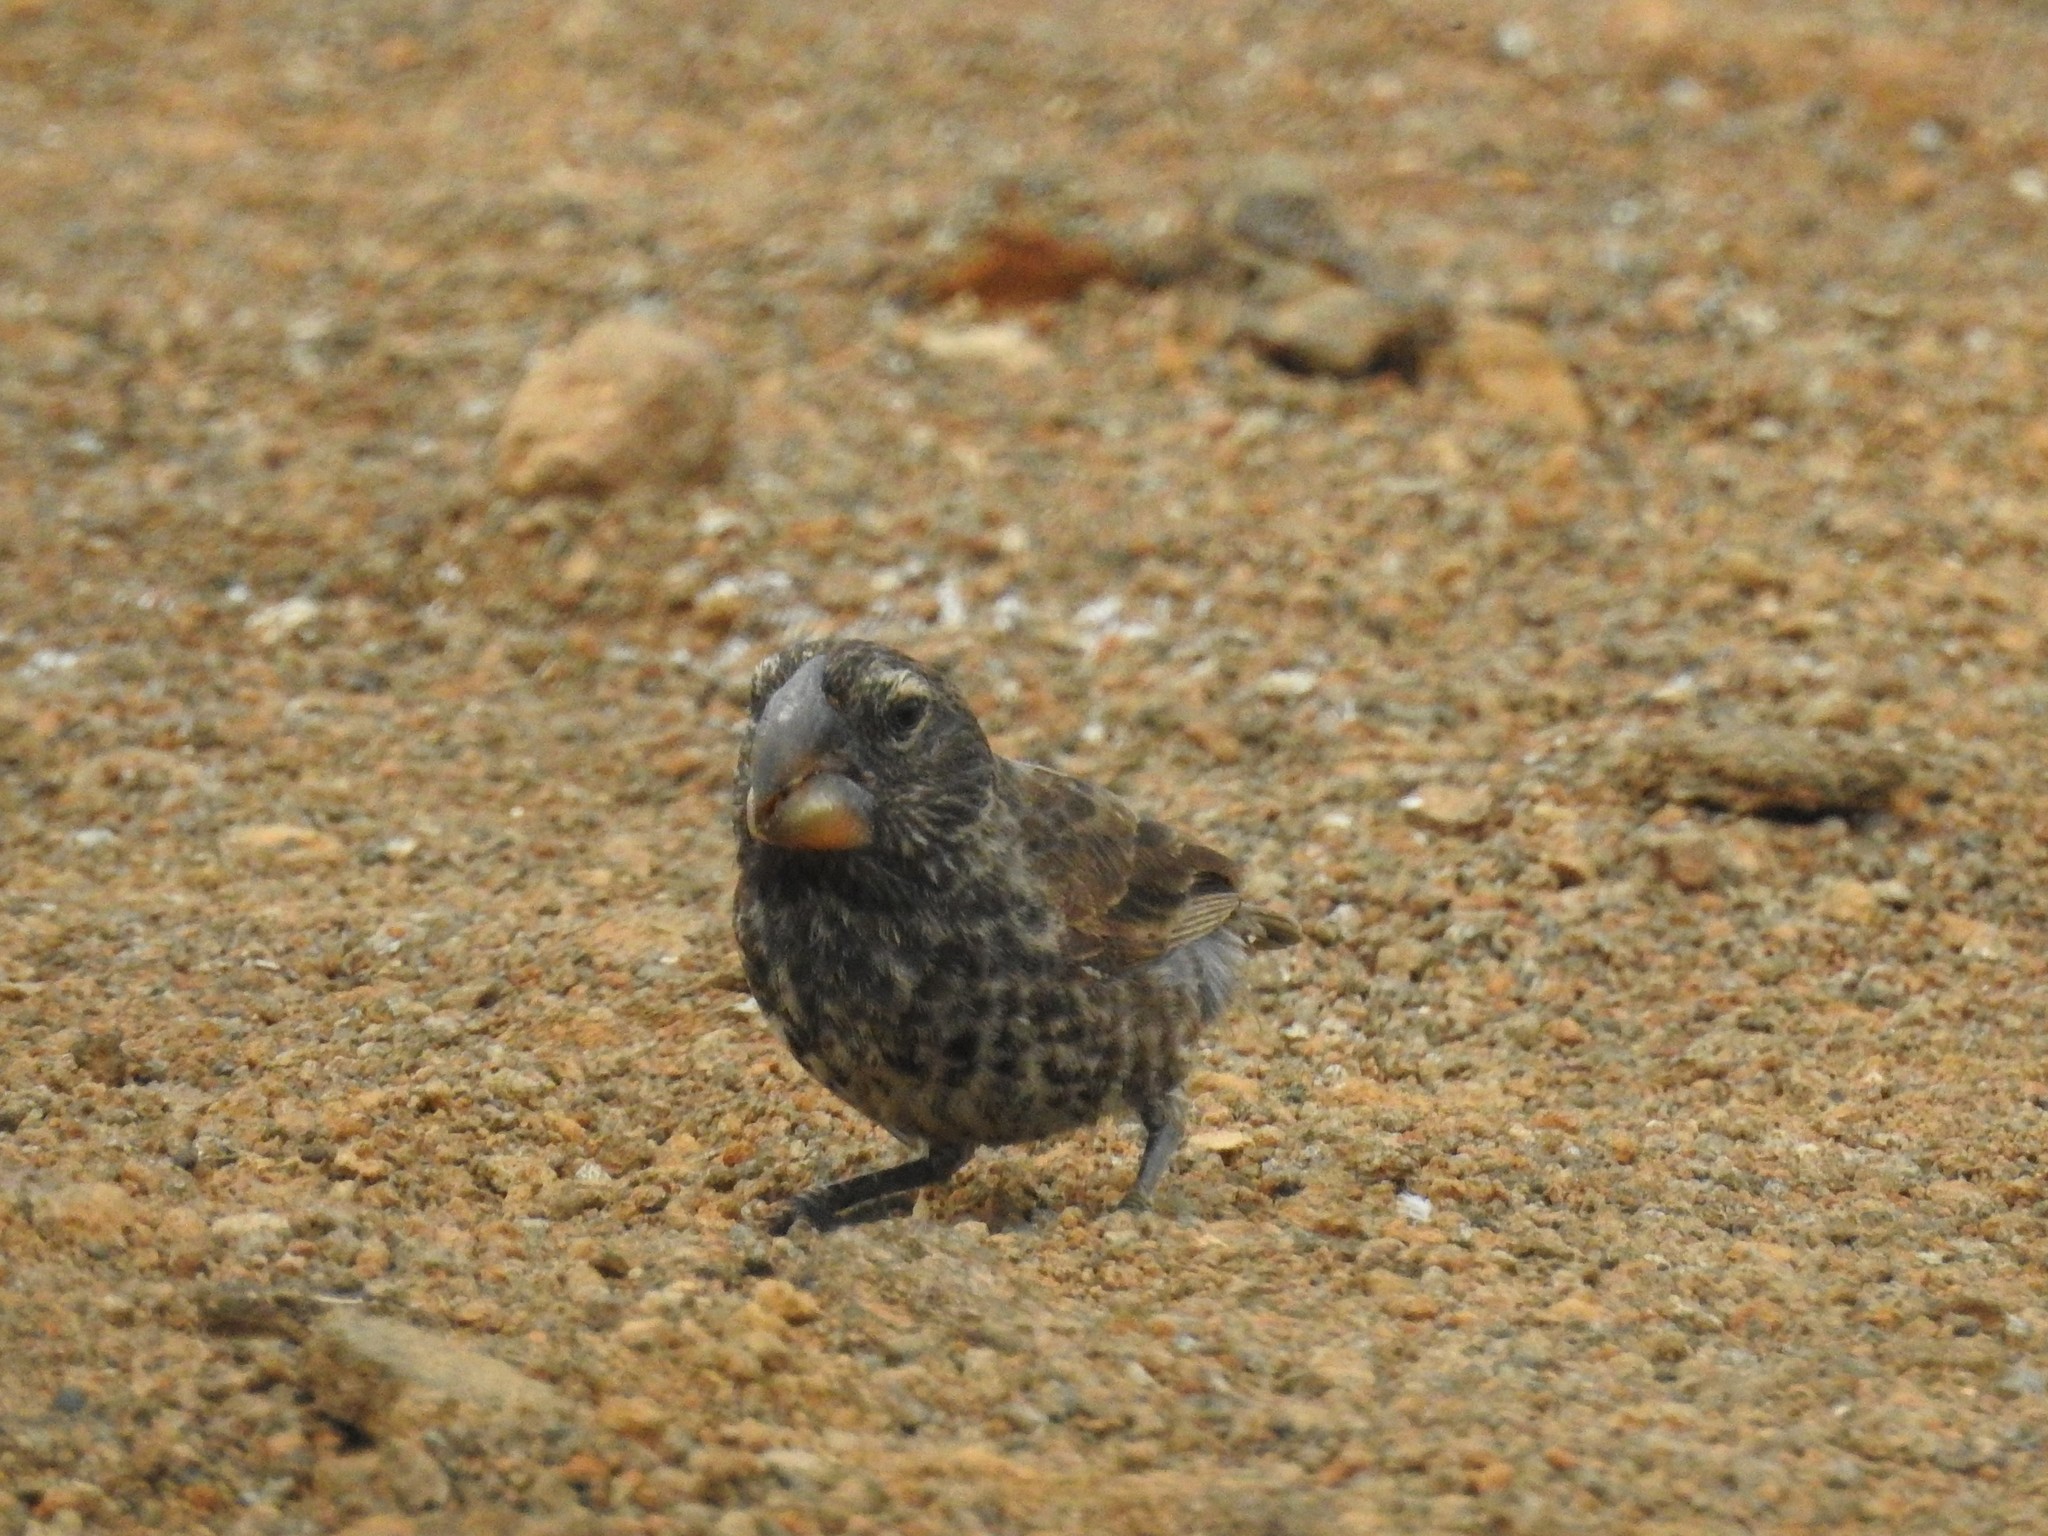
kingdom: Animalia
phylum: Chordata
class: Aves
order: Passeriformes
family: Thraupidae
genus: Geospiza
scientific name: Geospiza magnirostris
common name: Large ground-finch
